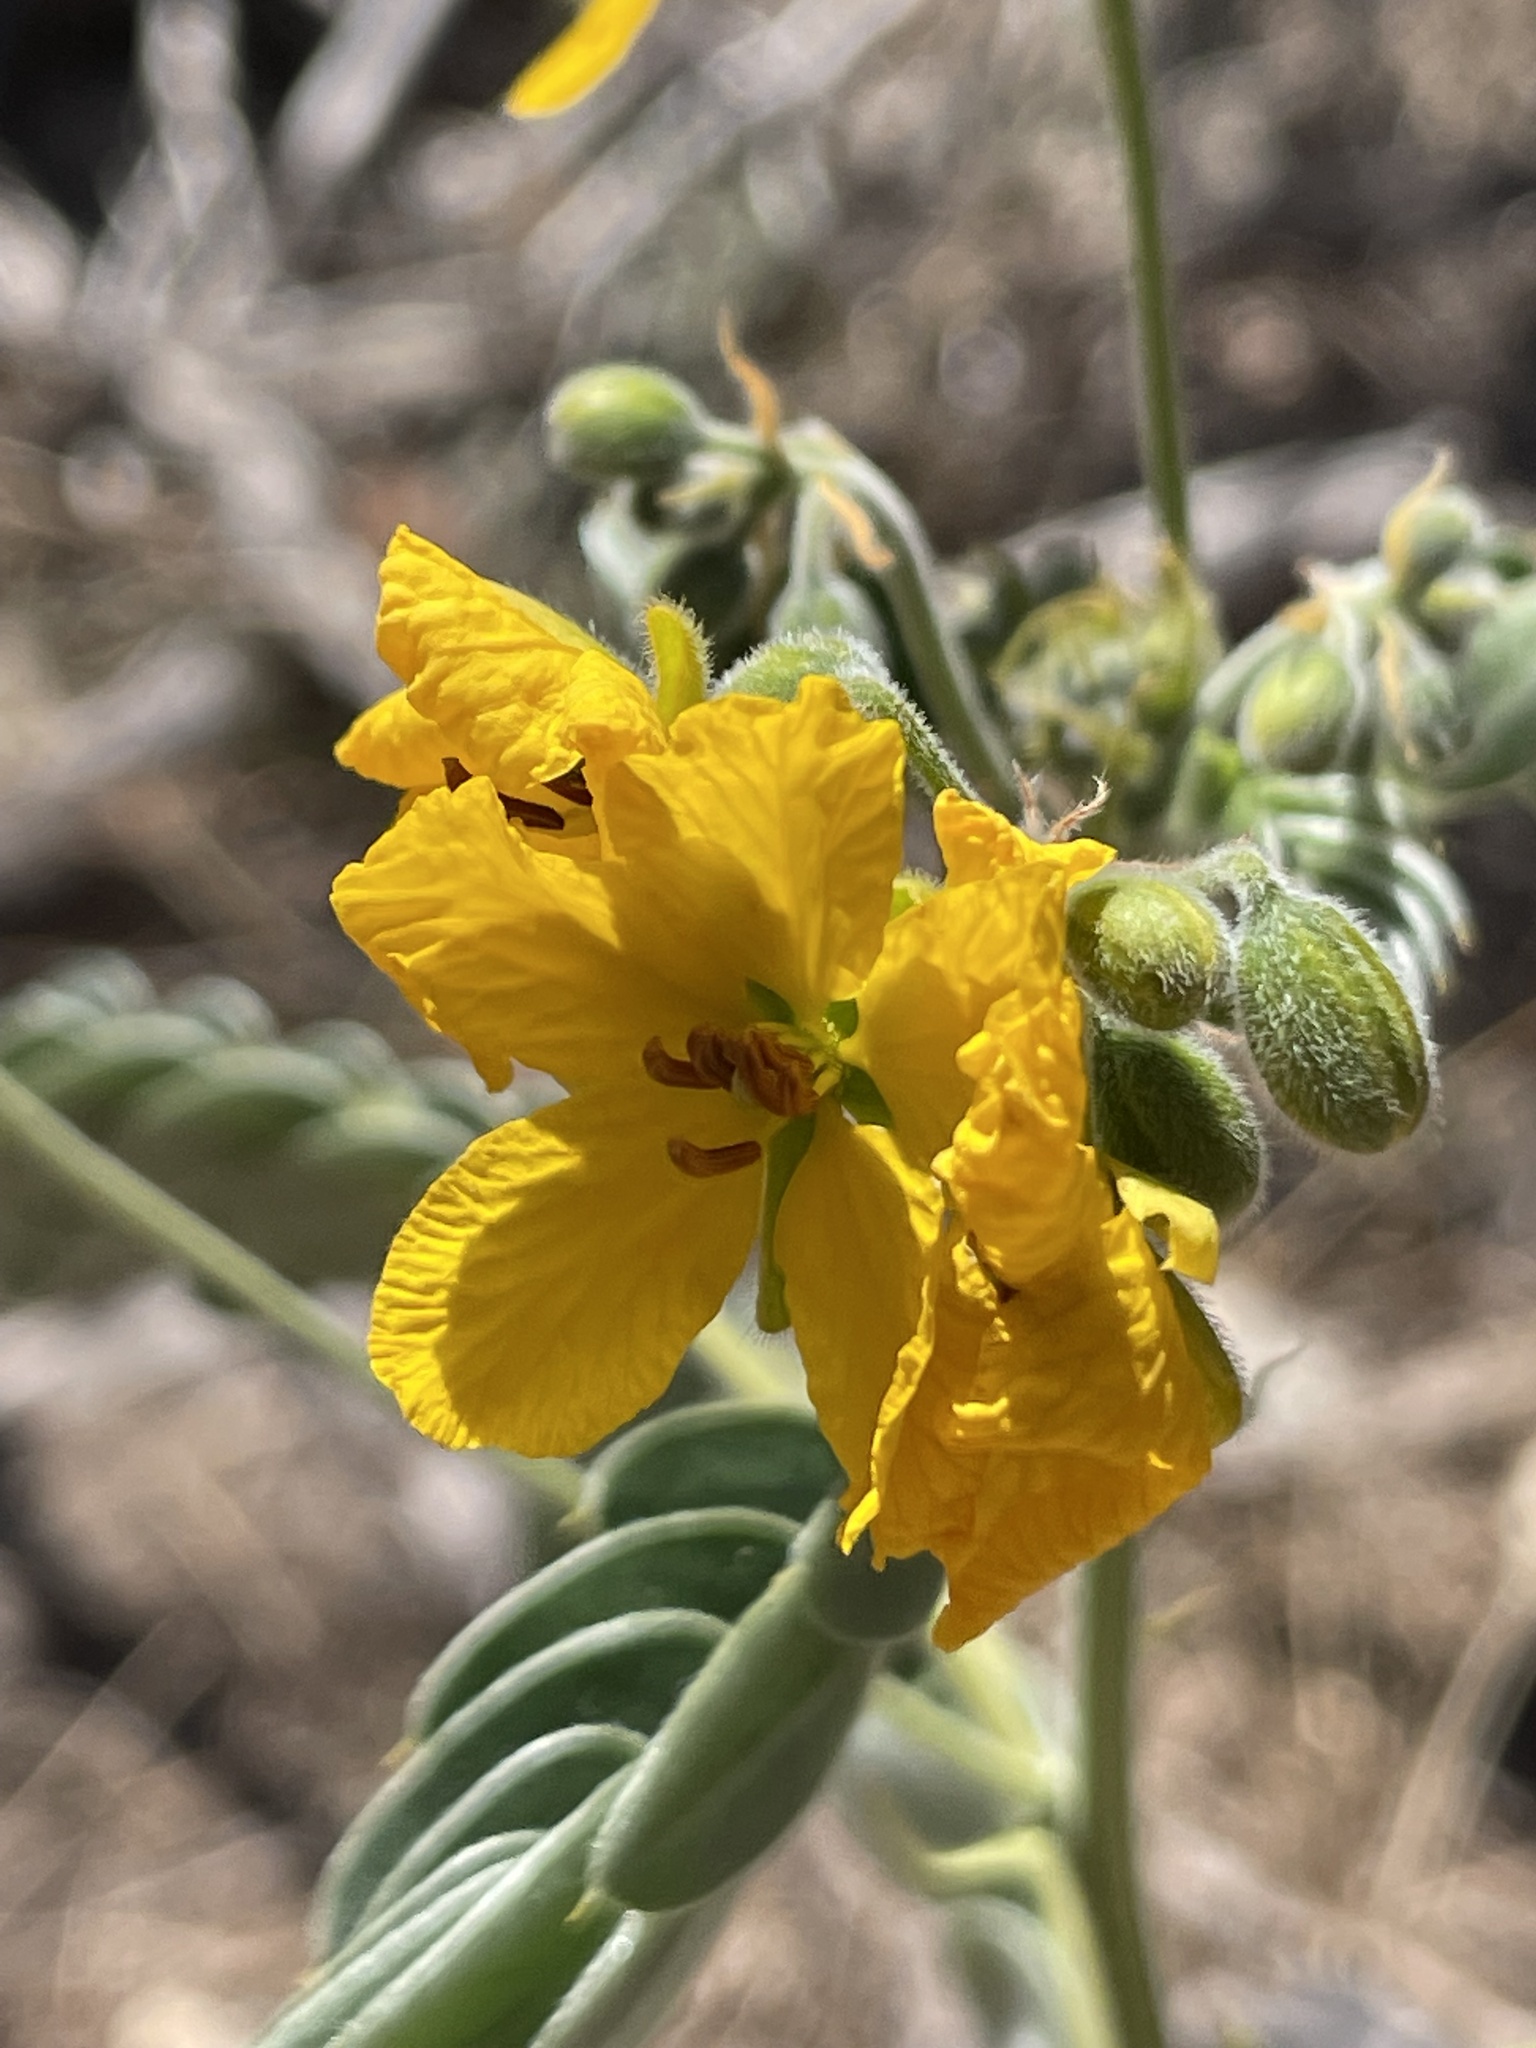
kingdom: Plantae
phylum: Tracheophyta
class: Magnoliopsida
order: Fabales
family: Fabaceae
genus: Senna
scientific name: Senna lindheimeriana
